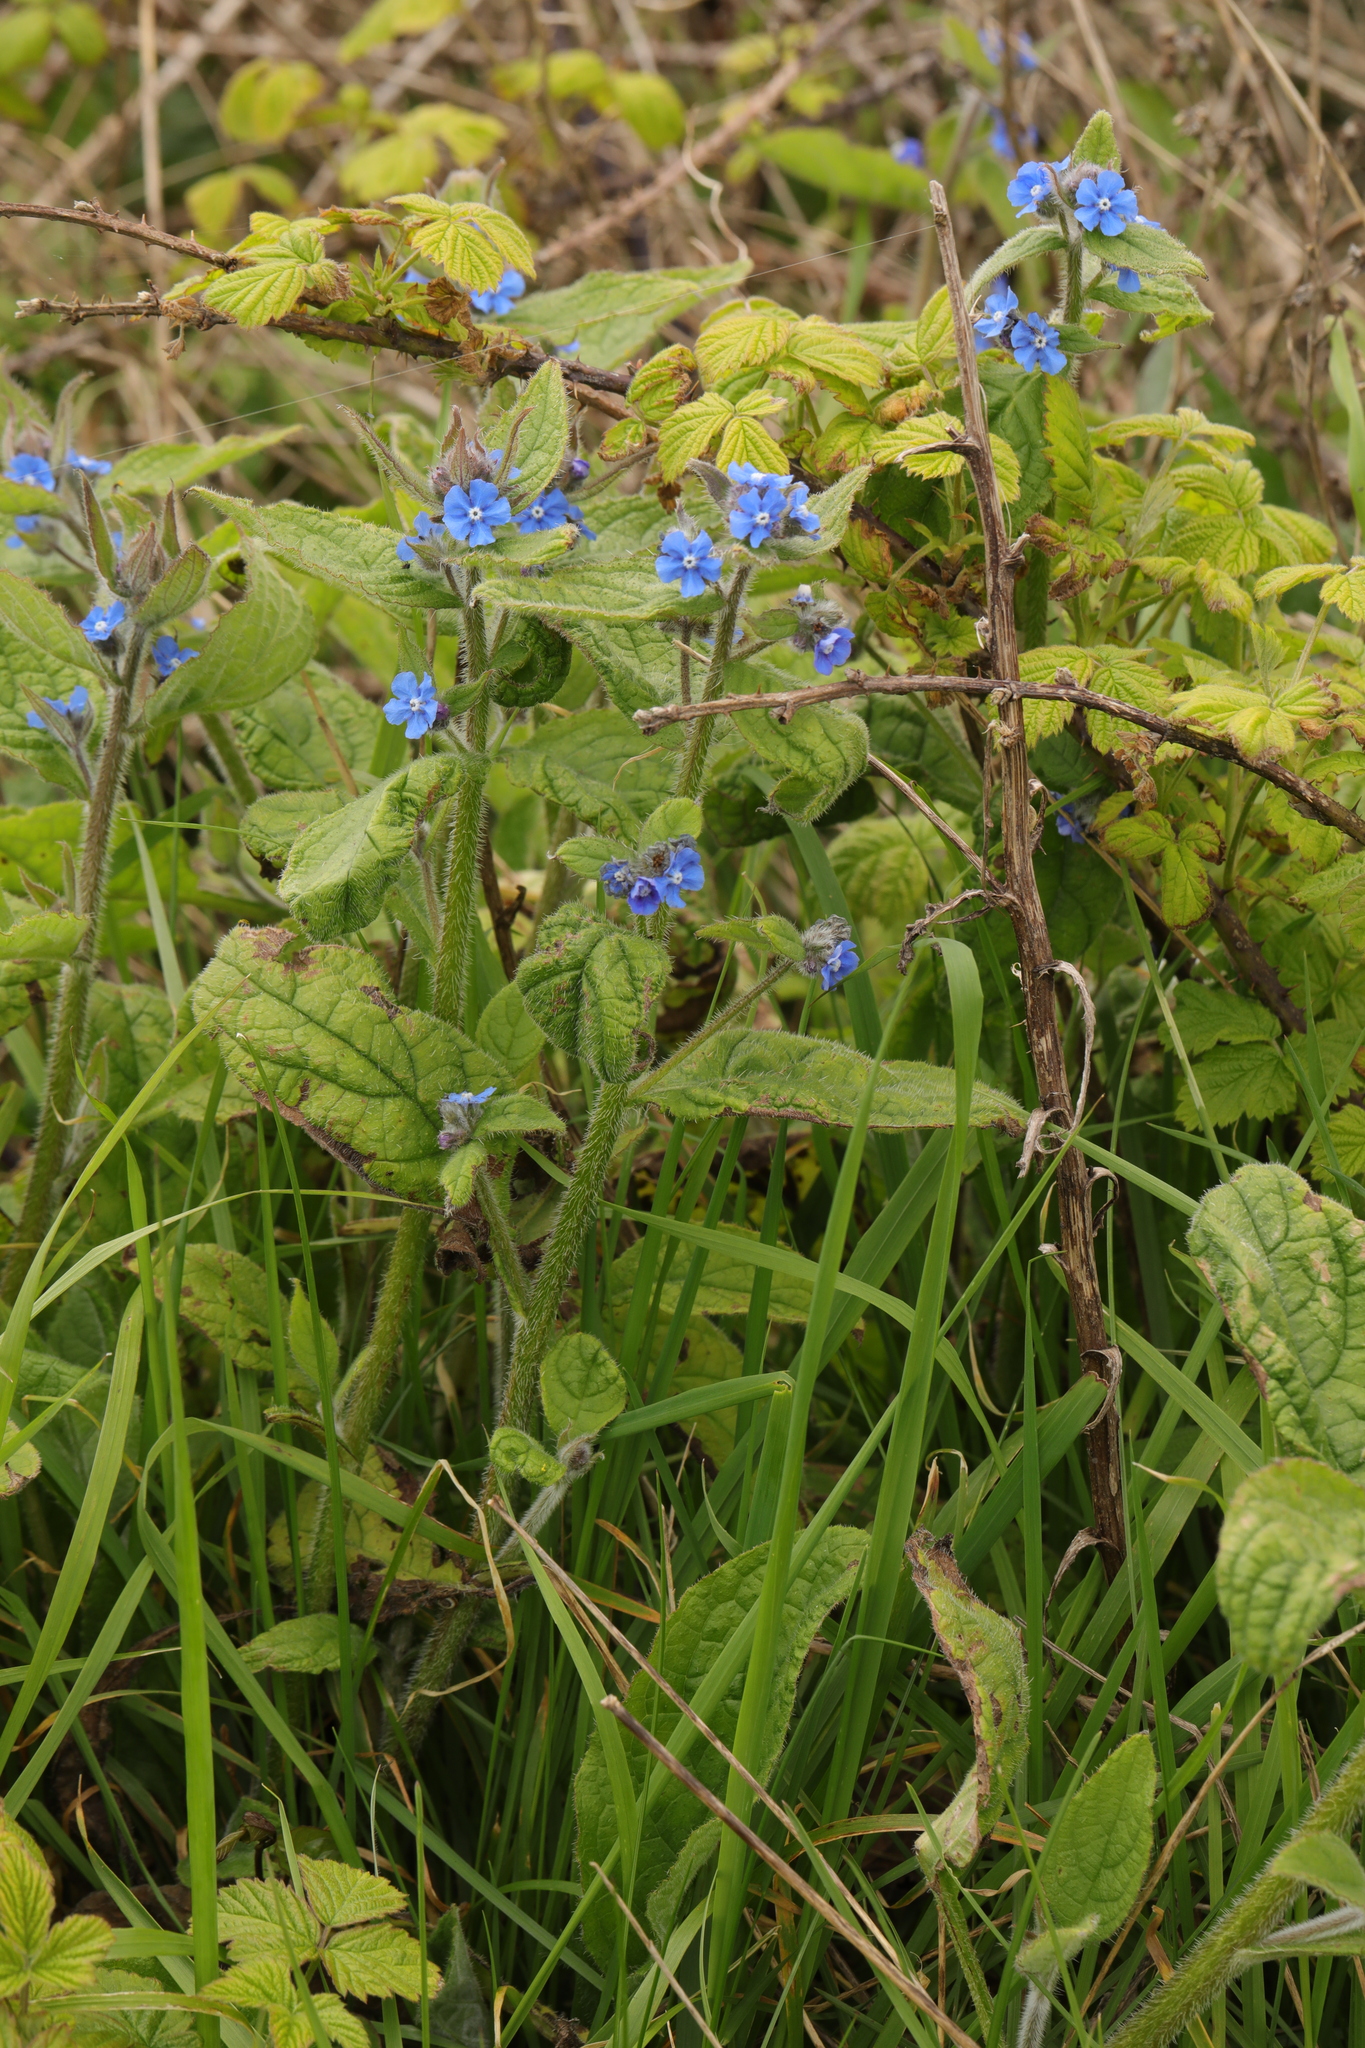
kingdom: Plantae
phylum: Tracheophyta
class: Magnoliopsida
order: Boraginales
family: Boraginaceae
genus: Pentaglottis
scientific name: Pentaglottis sempervirens
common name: Green alkanet
